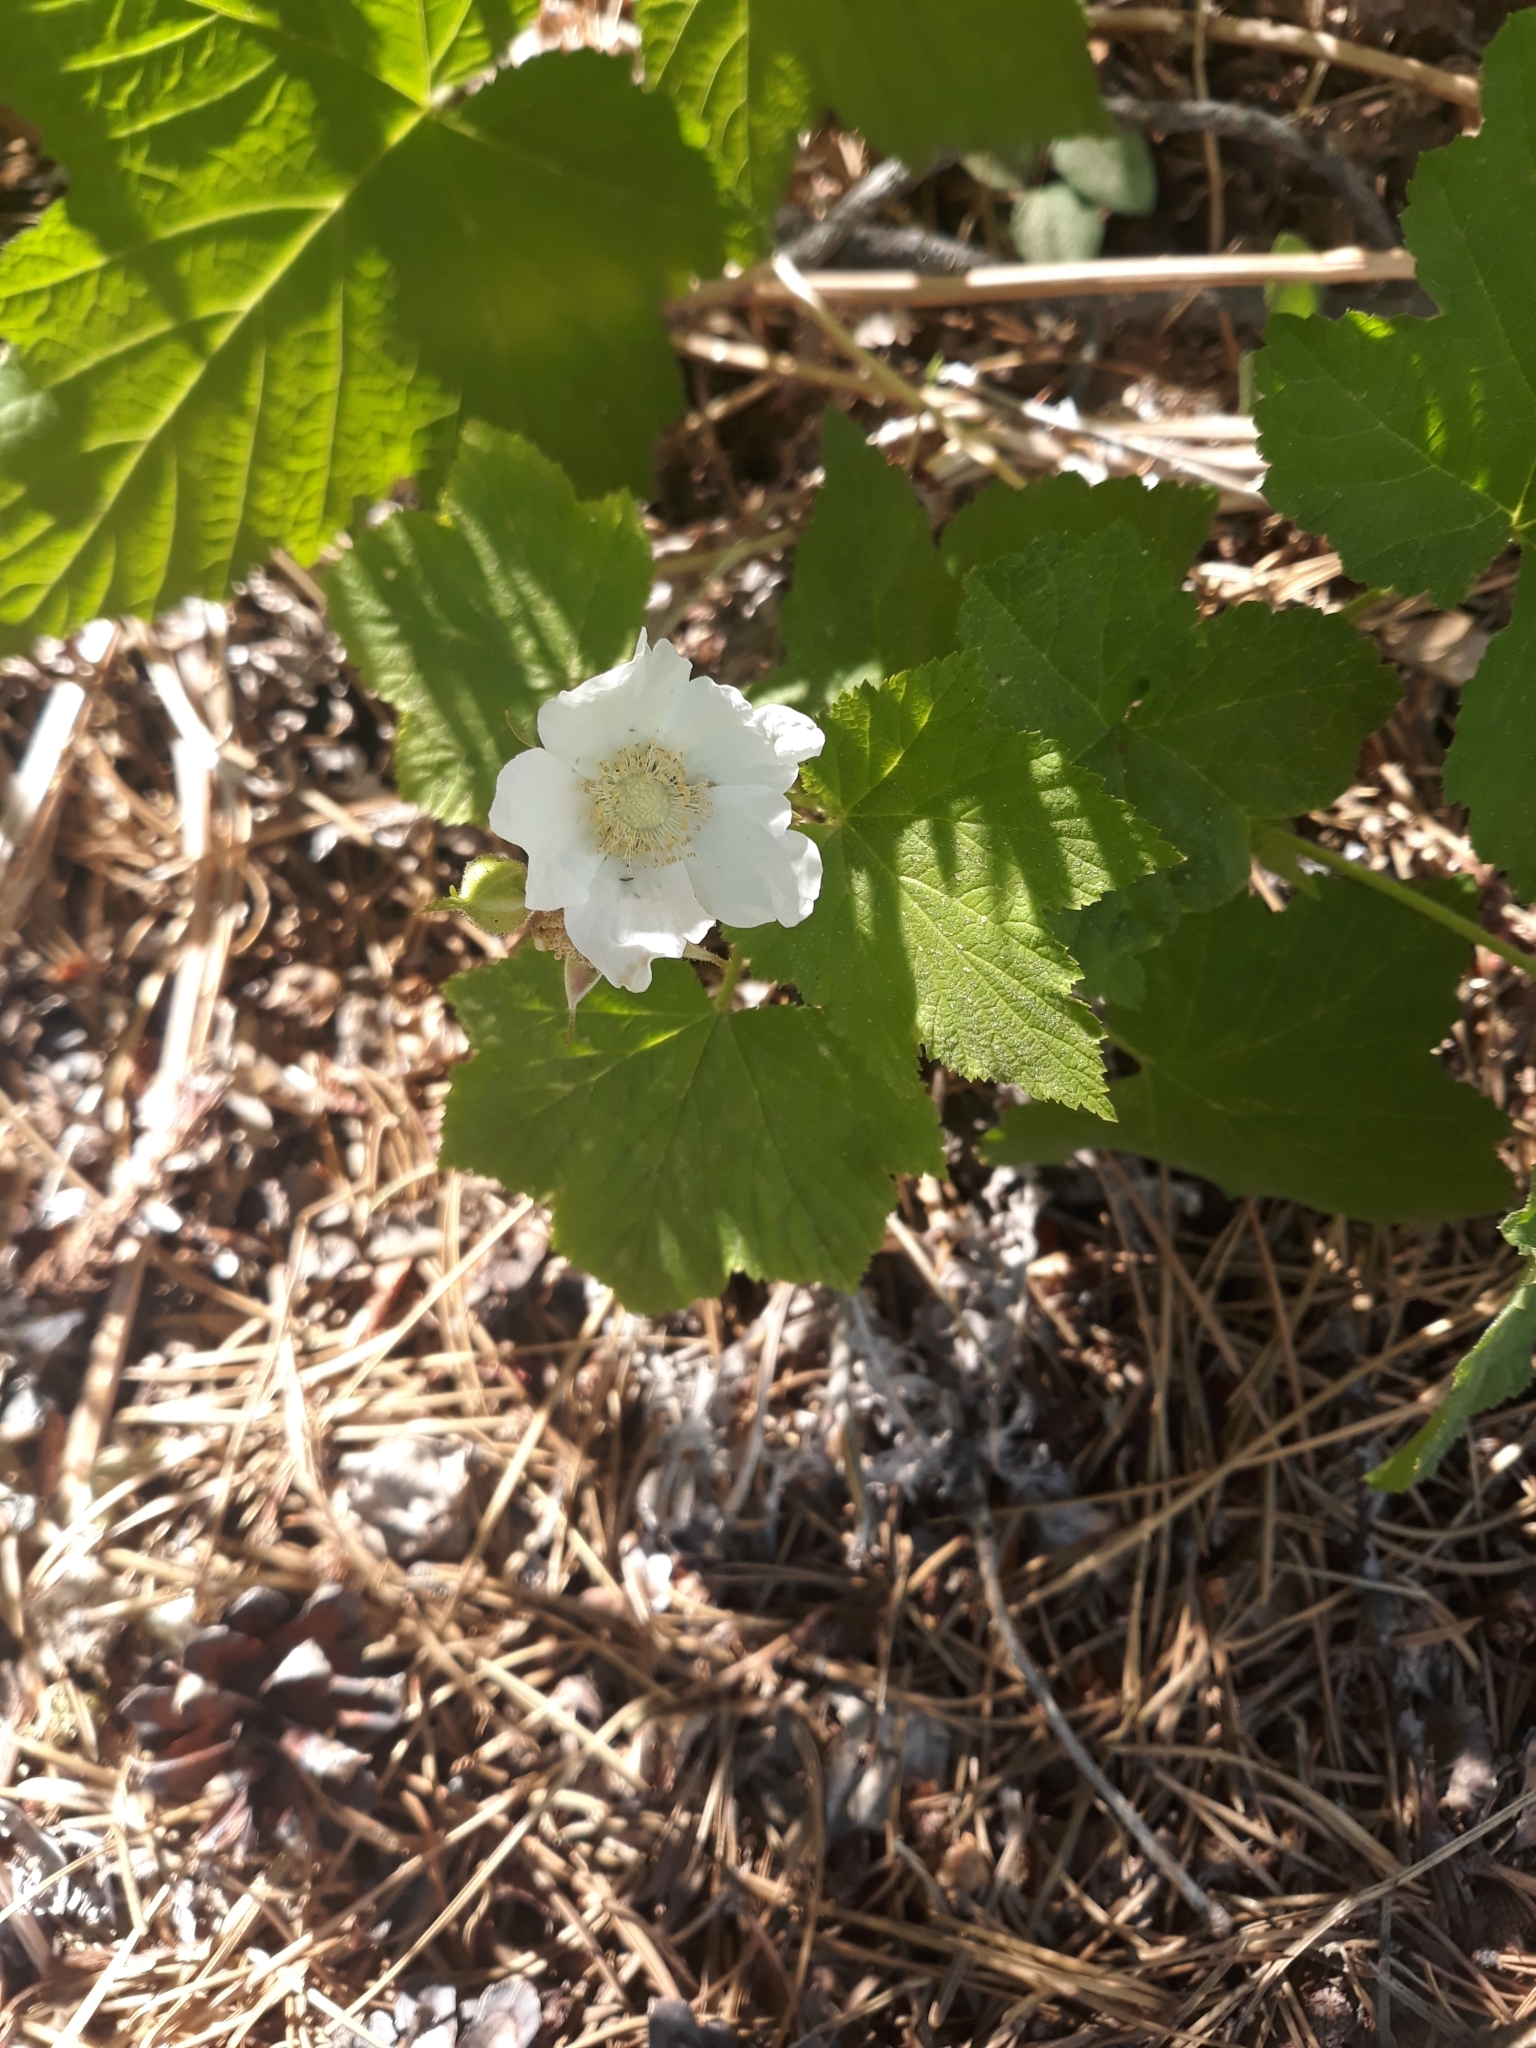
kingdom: Plantae
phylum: Tracheophyta
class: Magnoliopsida
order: Rosales
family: Rosaceae
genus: Rubus
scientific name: Rubus parviflorus
